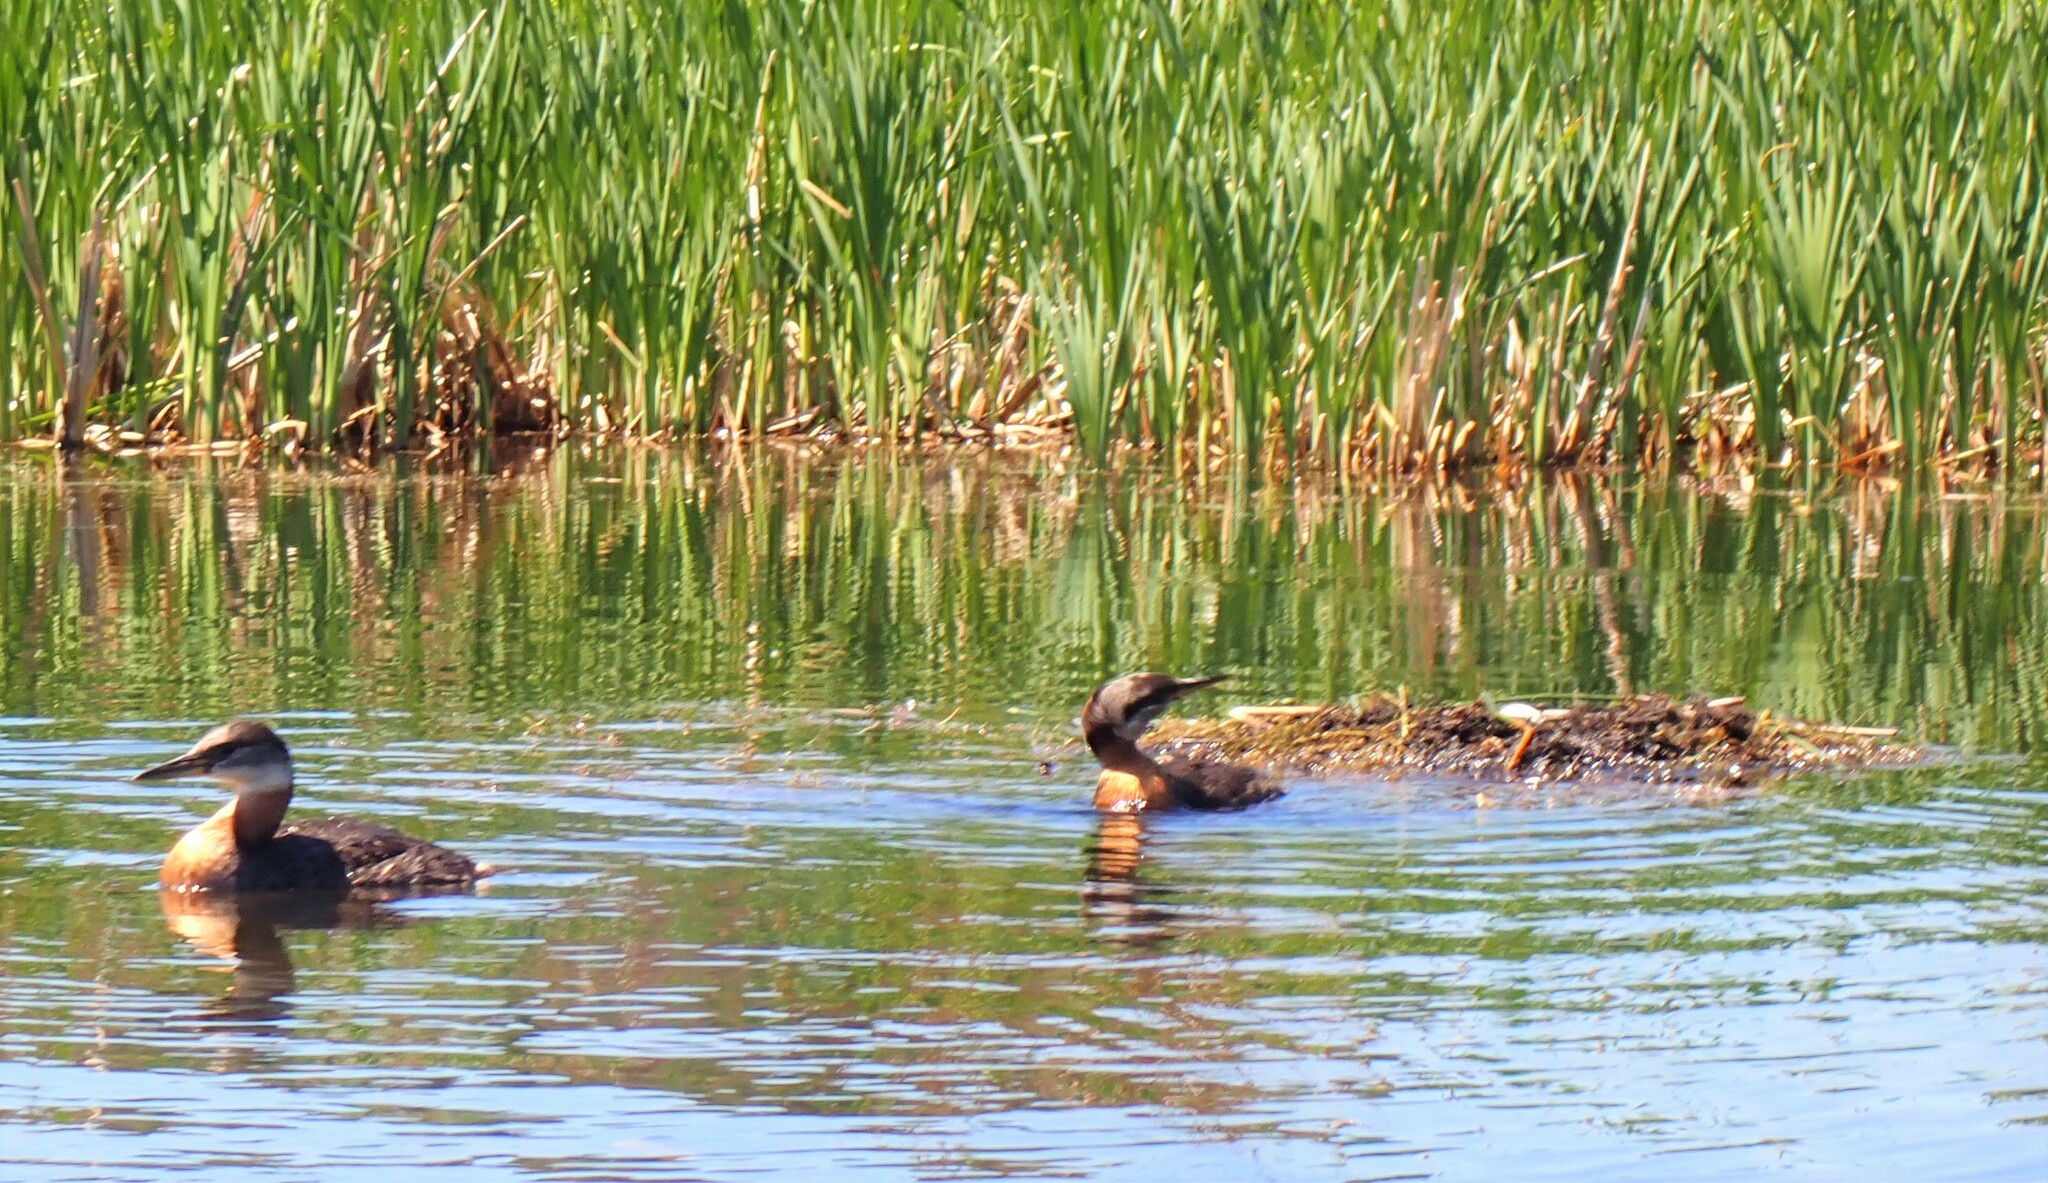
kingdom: Animalia
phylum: Chordata
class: Aves
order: Podicipediformes
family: Podicipedidae
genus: Podiceps
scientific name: Podiceps grisegena
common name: Red-necked grebe
